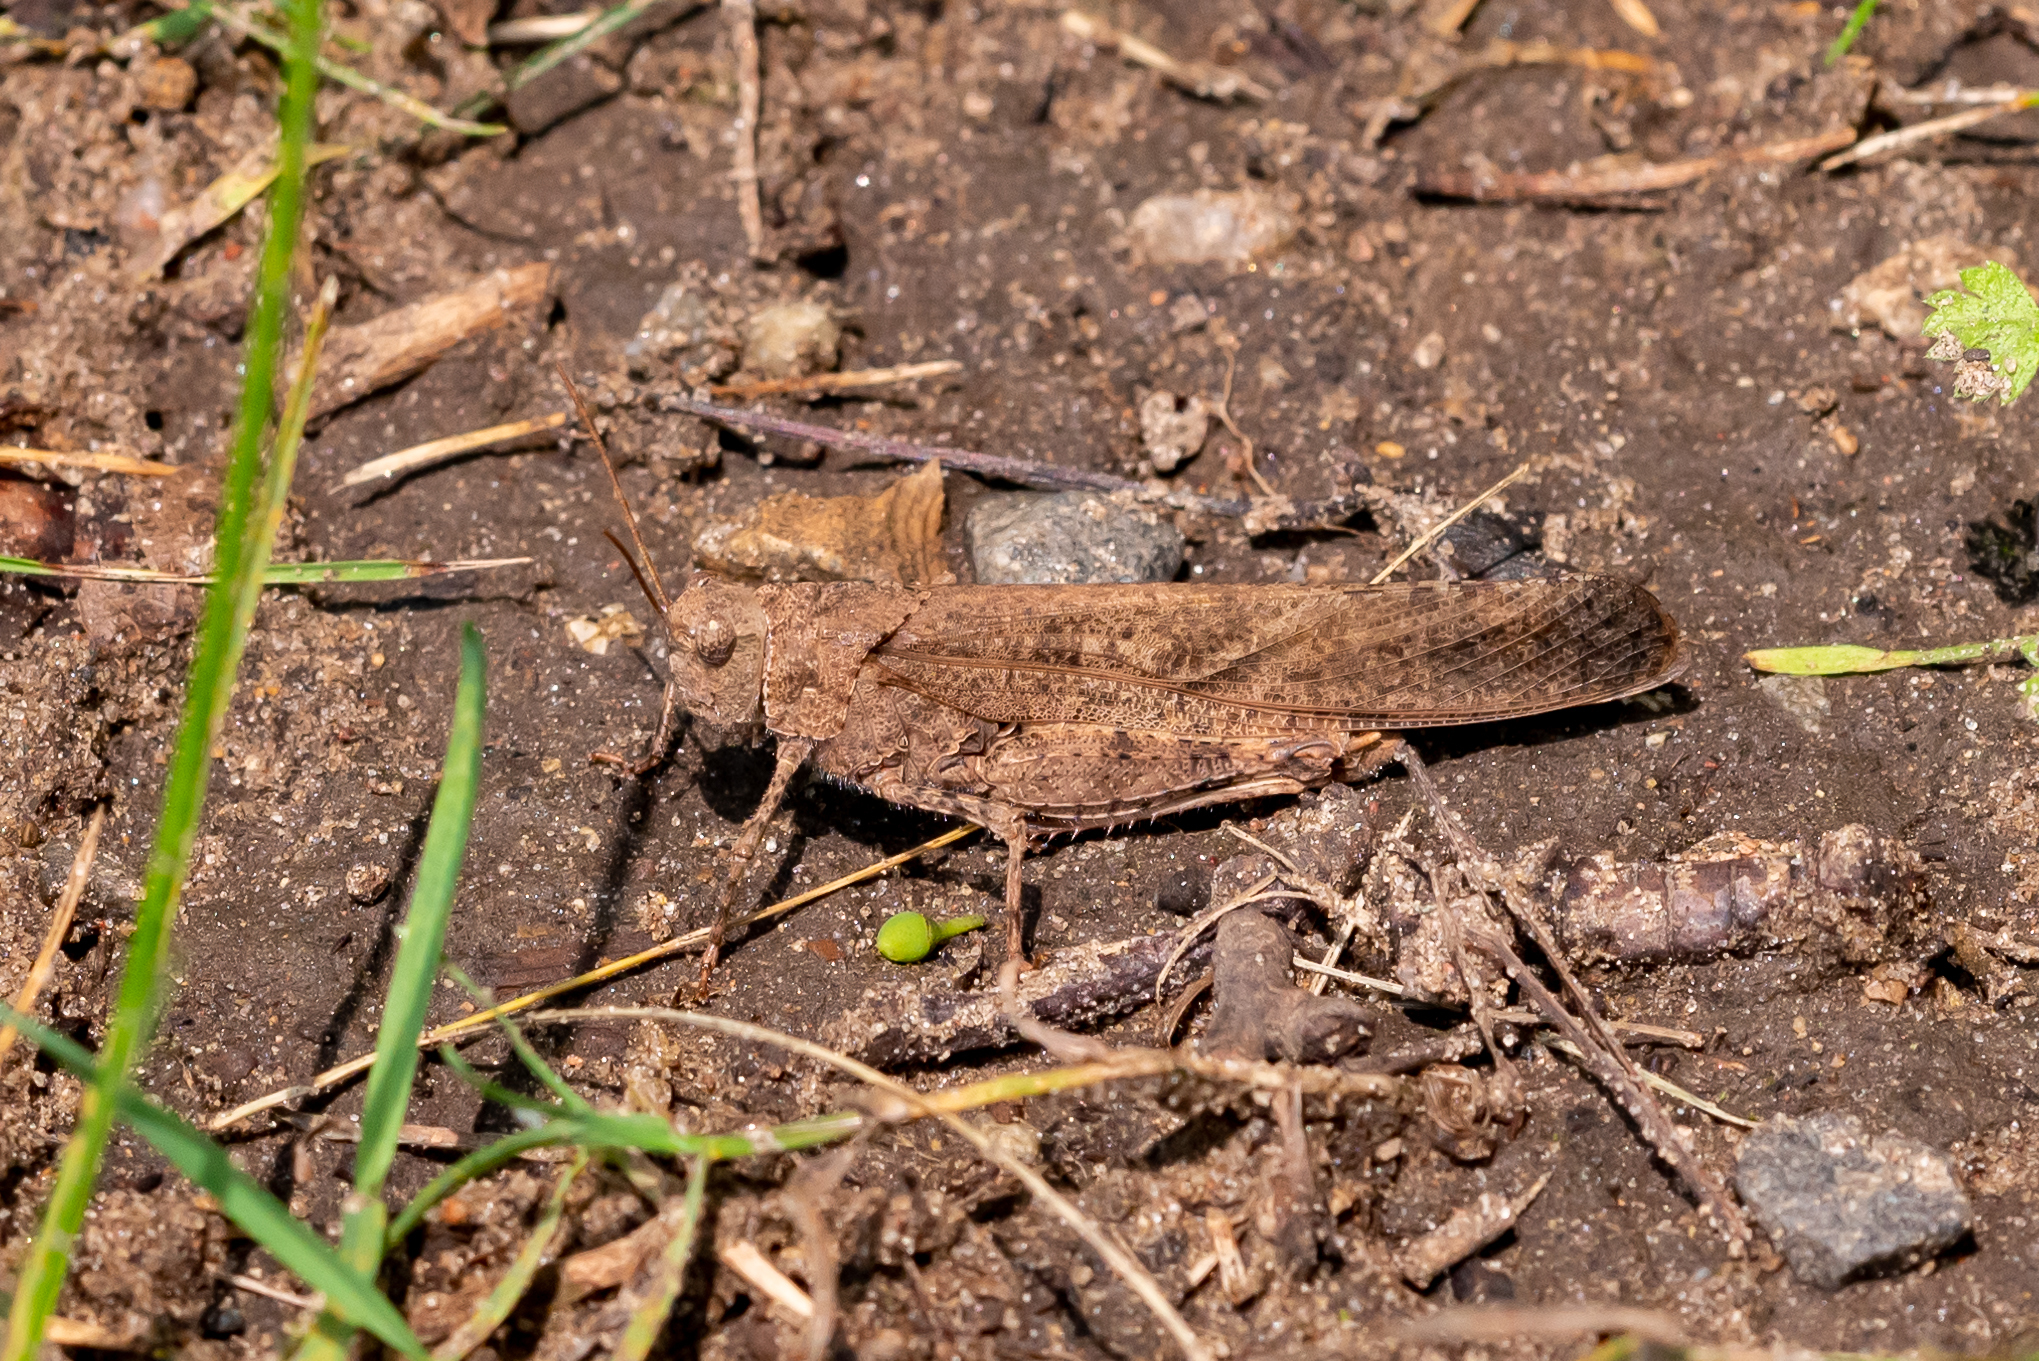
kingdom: Animalia
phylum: Arthropoda
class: Insecta
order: Orthoptera
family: Acrididae
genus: Dissosteira
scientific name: Dissosteira carolina
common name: Carolina grasshopper
